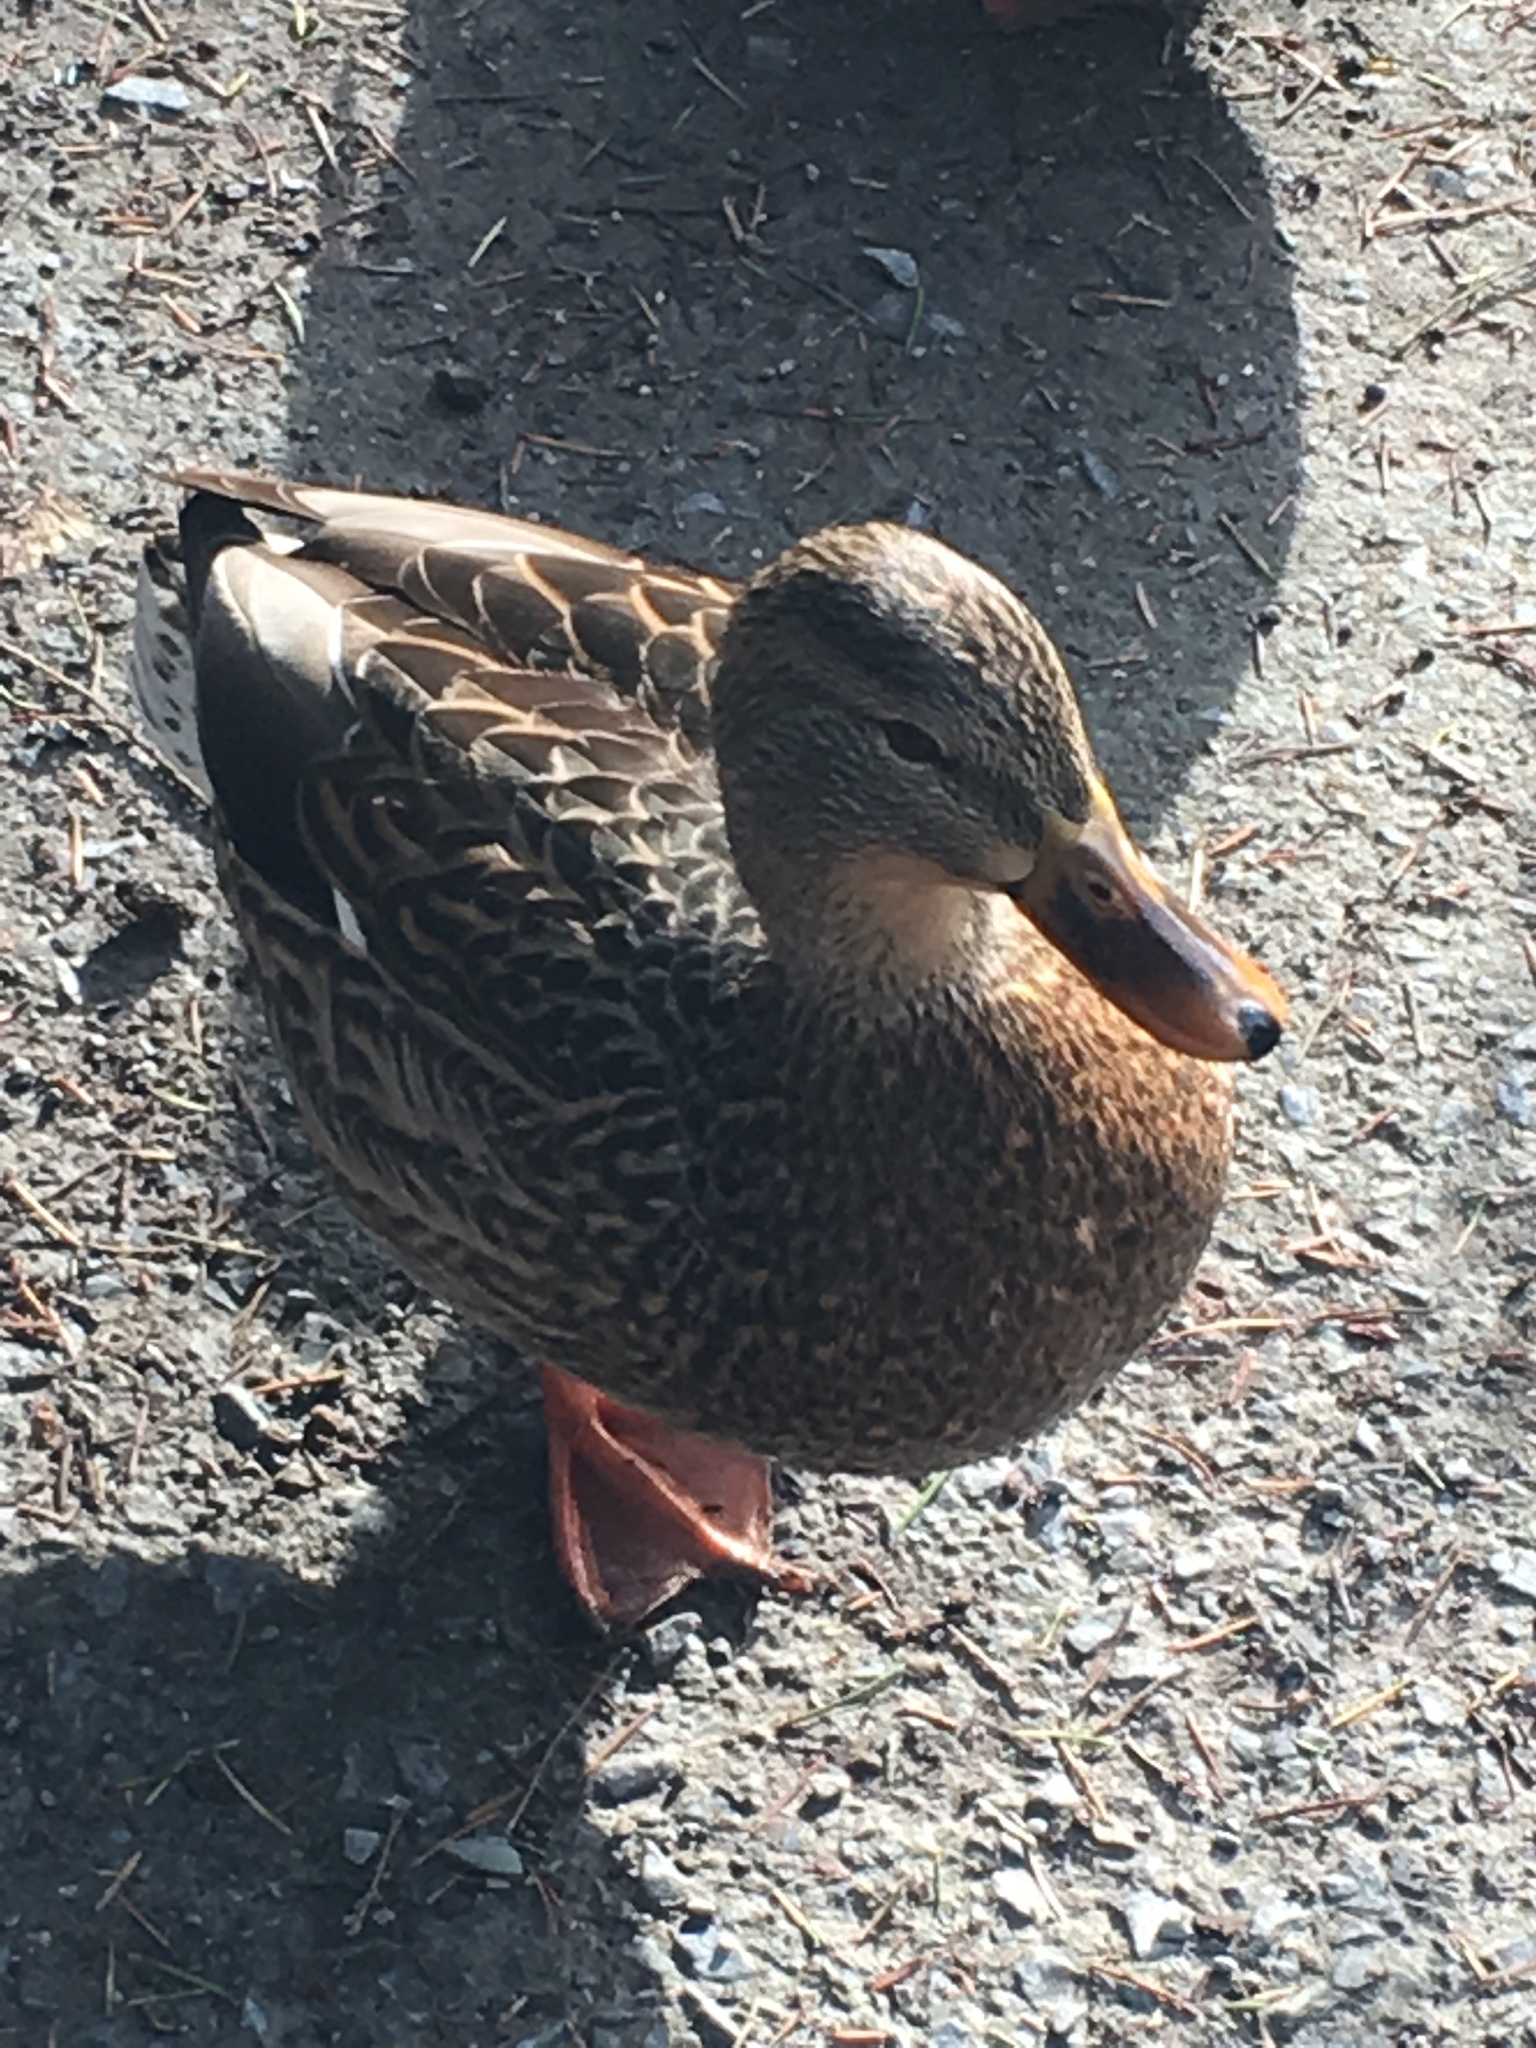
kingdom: Animalia
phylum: Chordata
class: Aves
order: Anseriformes
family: Anatidae
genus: Anas
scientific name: Anas platyrhynchos
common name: Mallard
